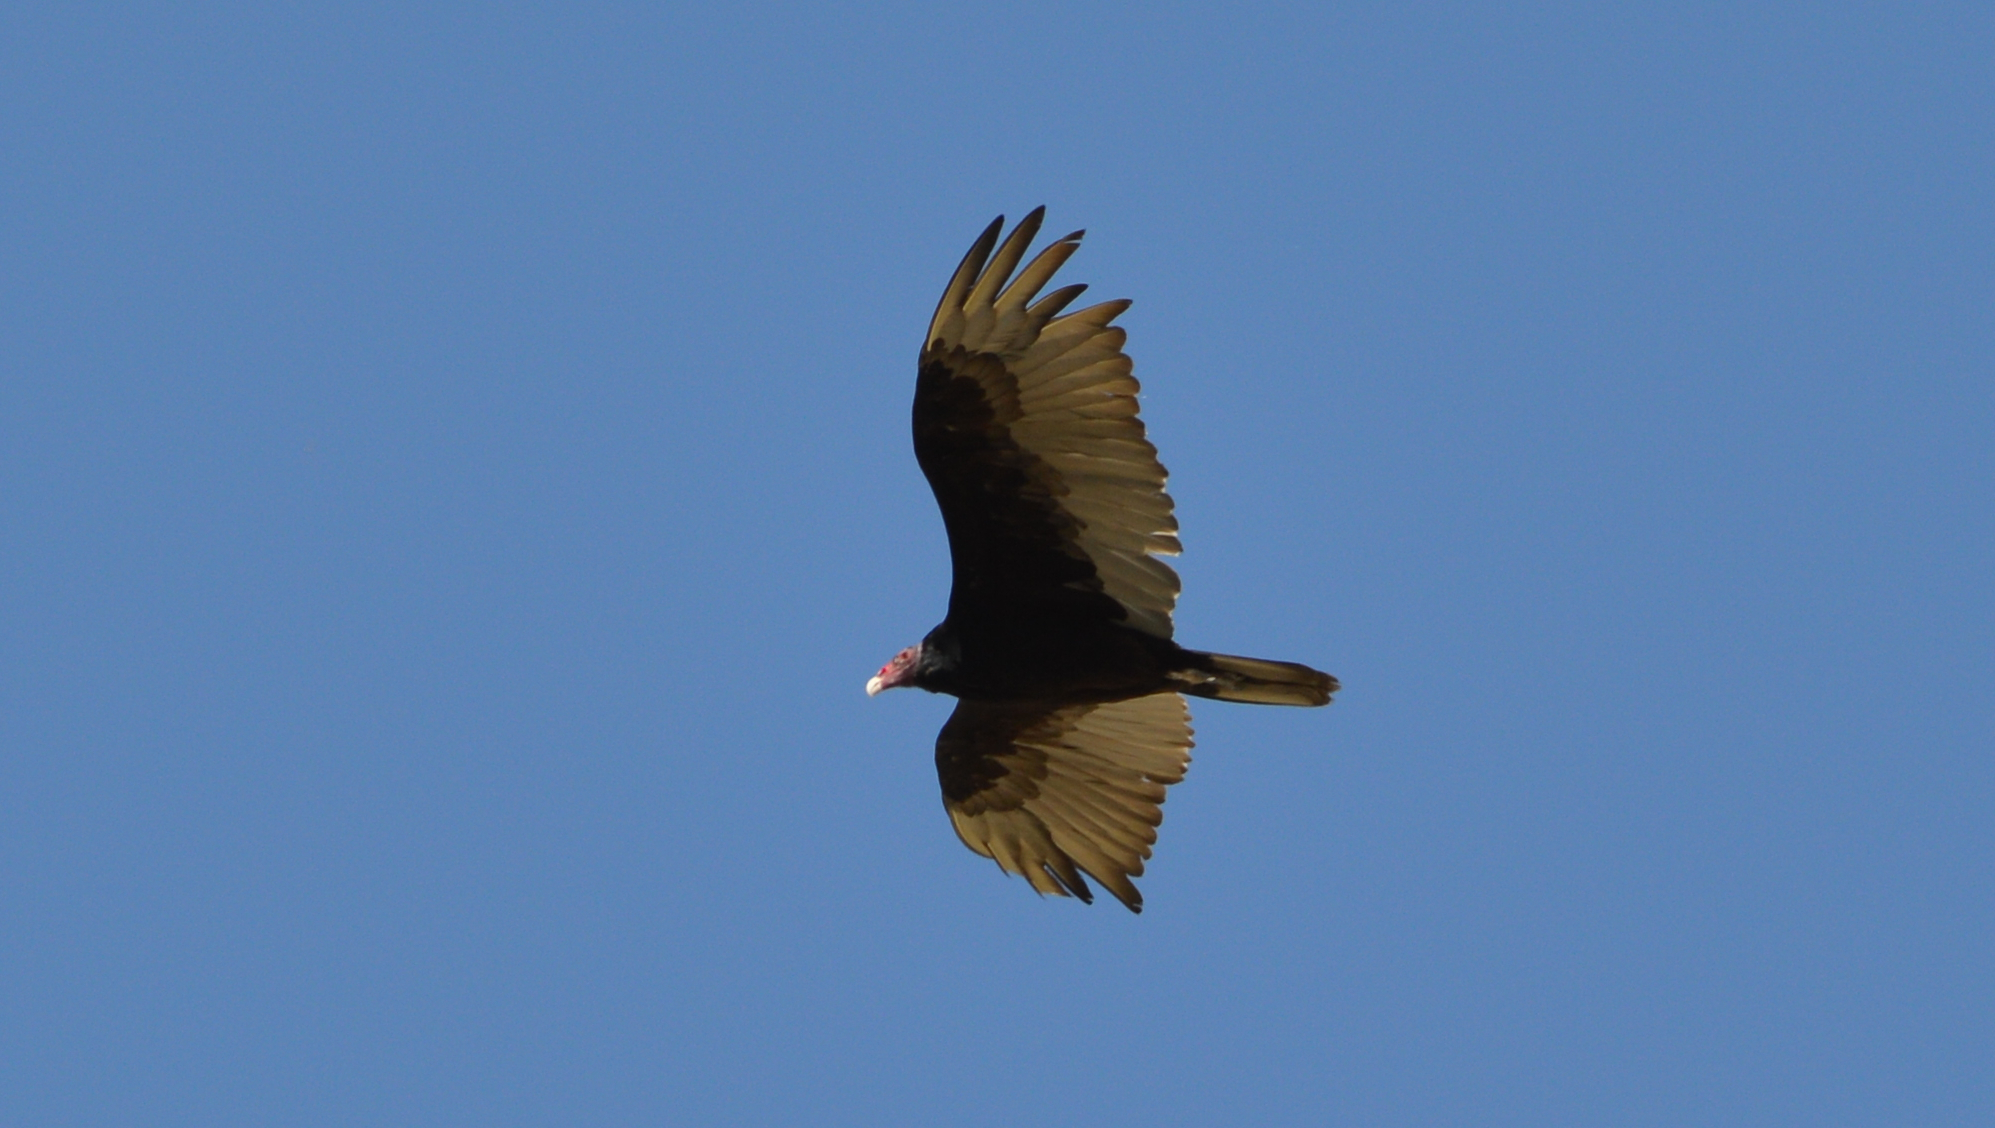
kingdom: Animalia
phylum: Chordata
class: Aves
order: Accipitriformes
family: Cathartidae
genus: Cathartes
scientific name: Cathartes aura
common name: Turkey vulture
